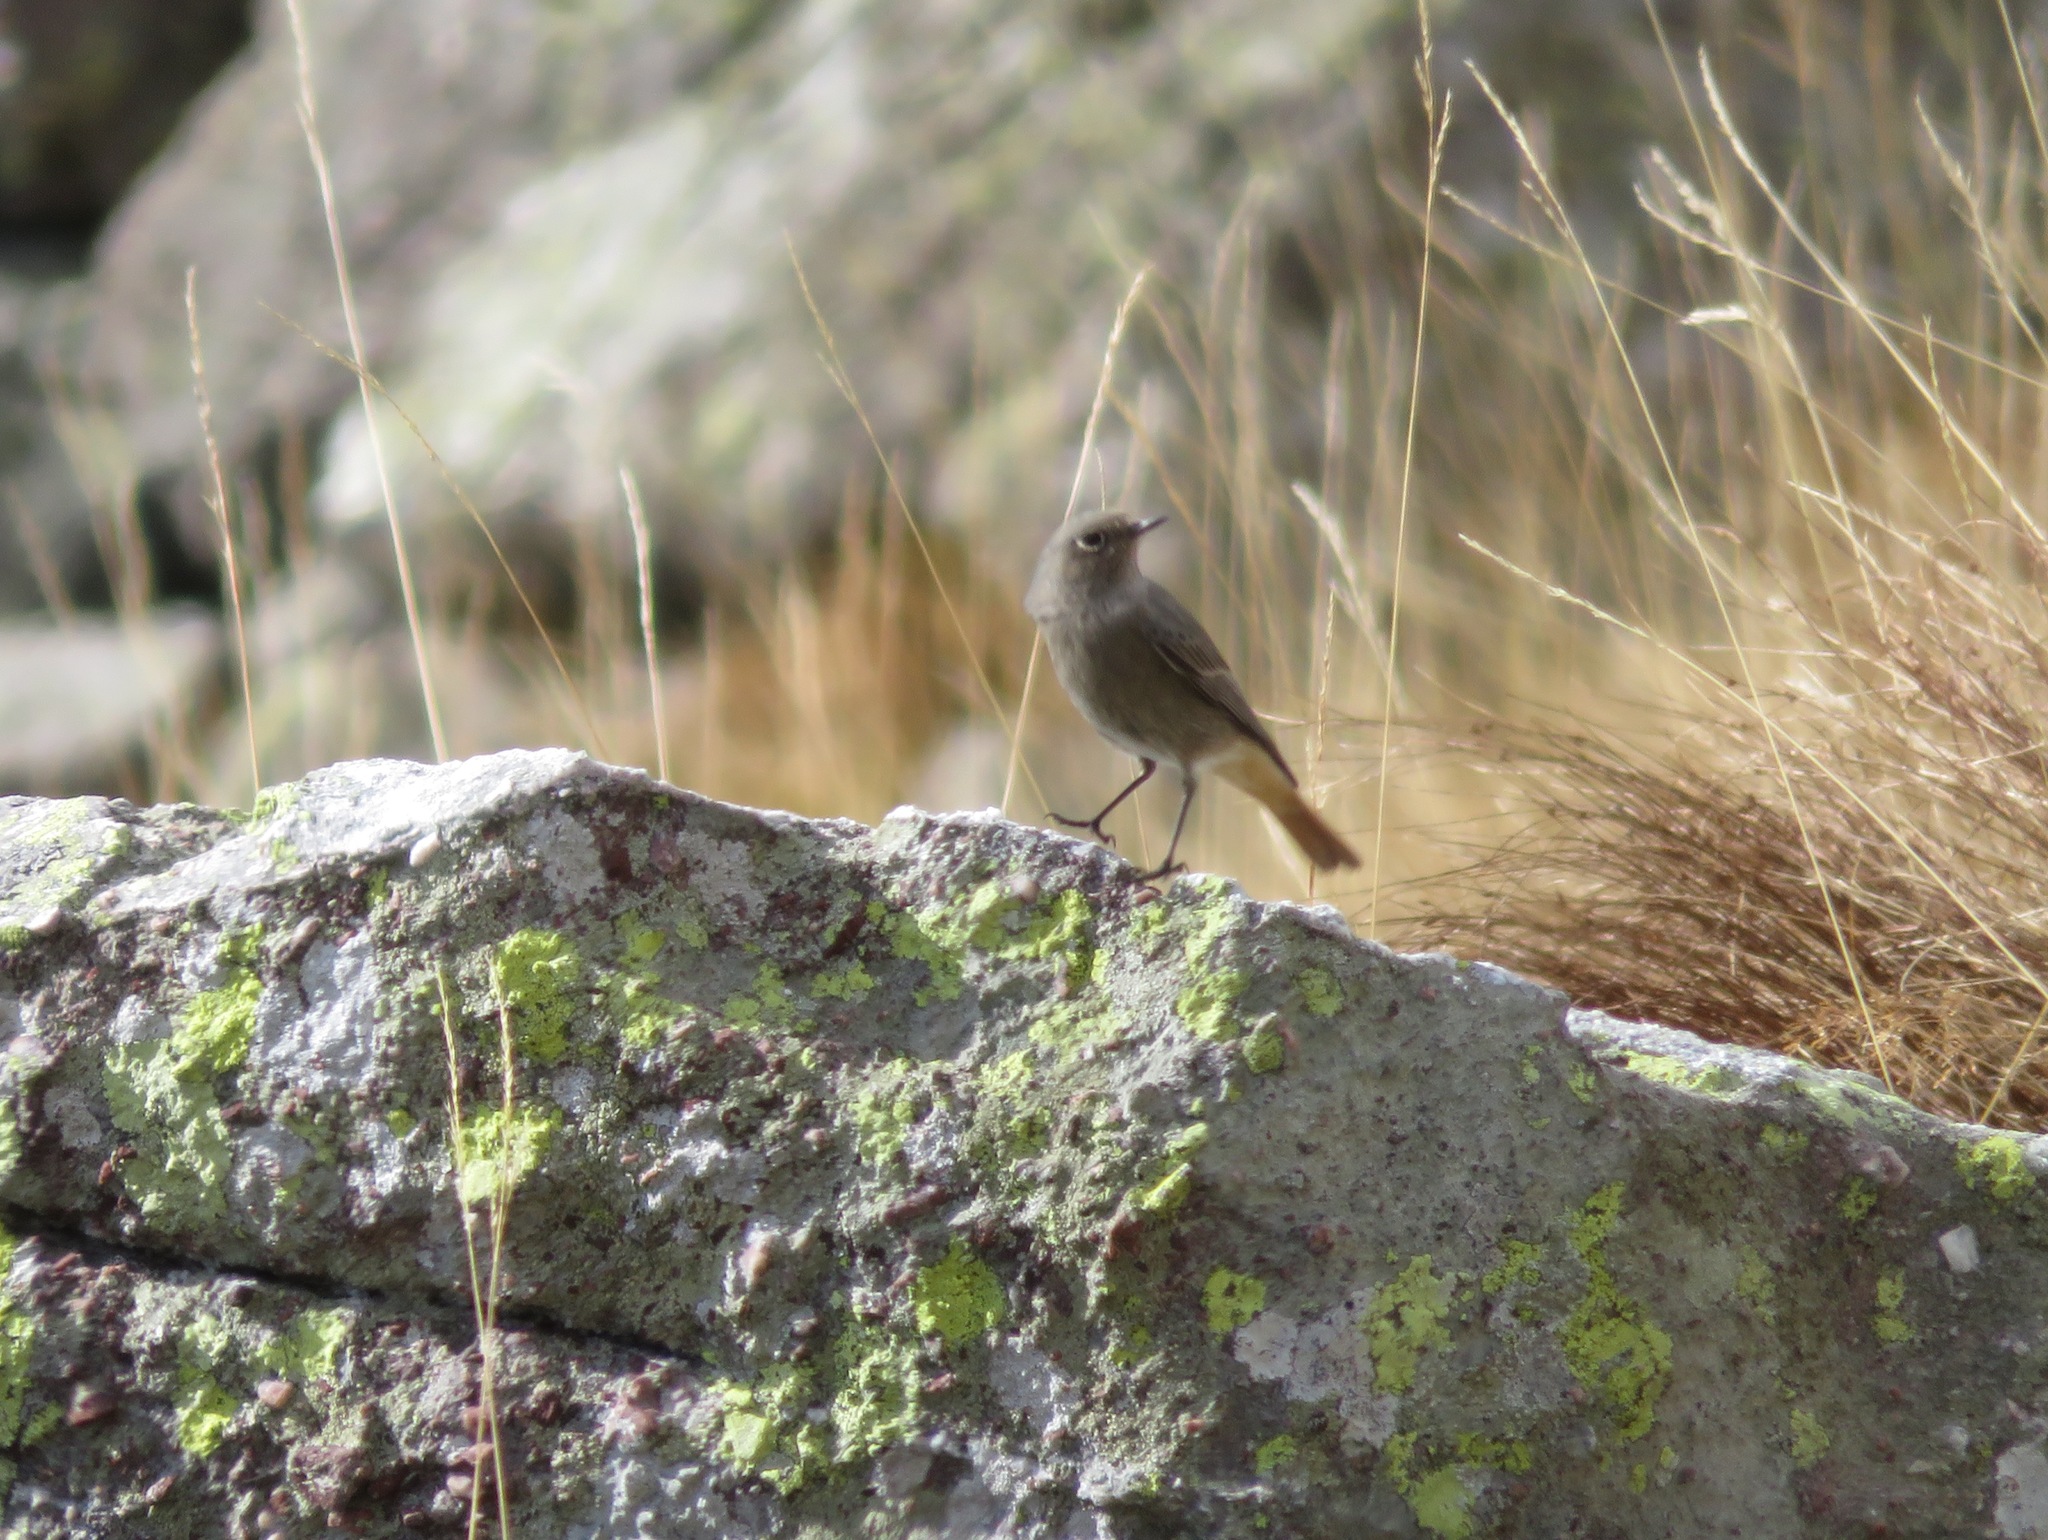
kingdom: Animalia
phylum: Chordata
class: Aves
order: Passeriformes
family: Muscicapidae
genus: Phoenicurus
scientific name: Phoenicurus ochruros
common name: Black redstart
